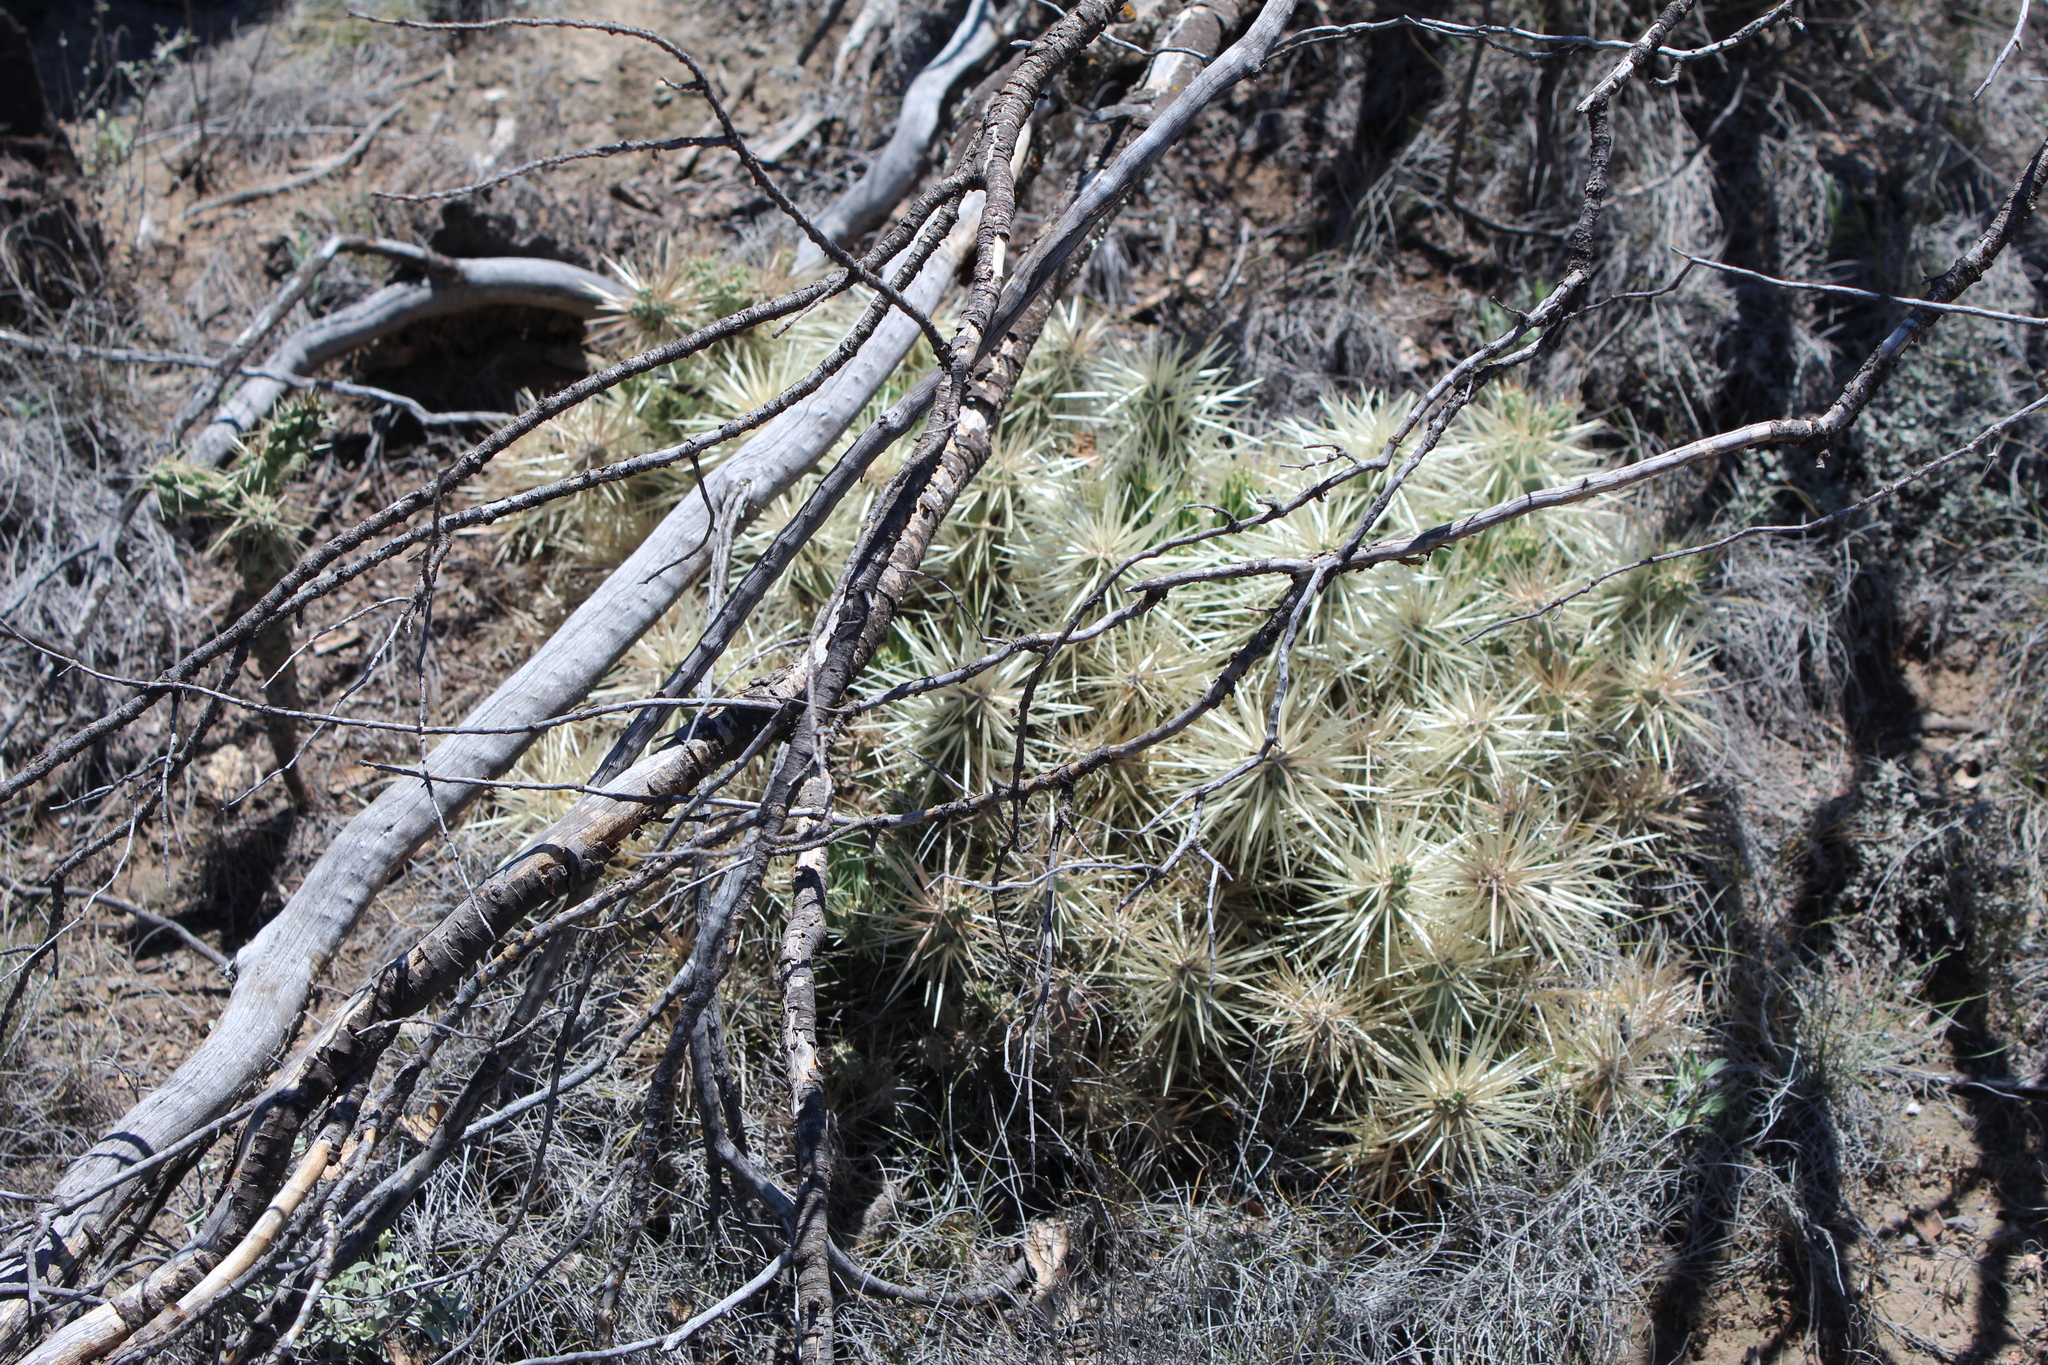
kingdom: Plantae
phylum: Tracheophyta
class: Magnoliopsida
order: Caryophyllales
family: Cactaceae
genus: Cylindropuntia
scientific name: Cylindropuntia tunicata
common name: Sheathed cholla
